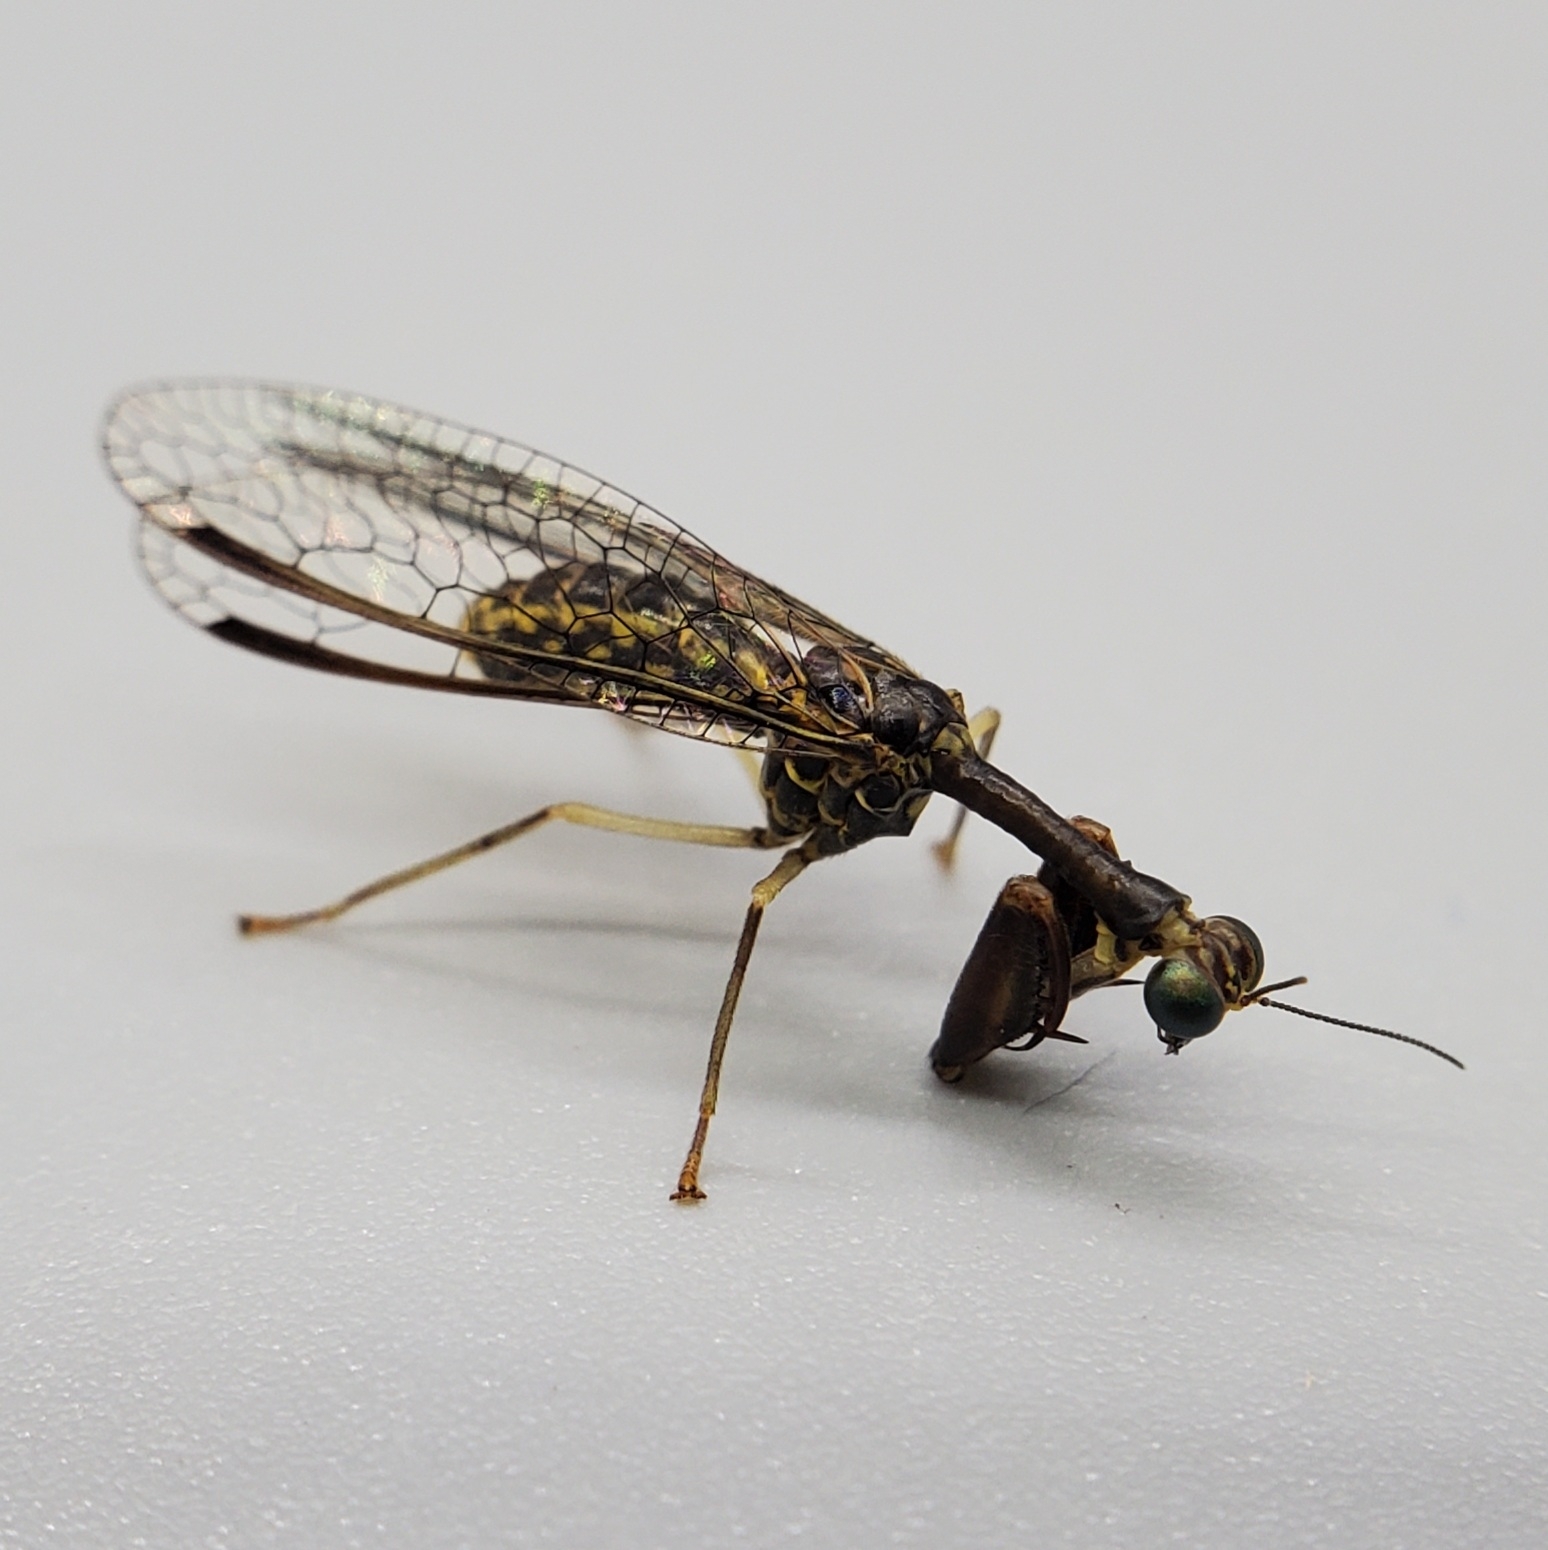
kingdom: Animalia
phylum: Arthropoda
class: Insecta
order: Neuroptera
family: Mantispidae
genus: Dicromantispa
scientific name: Dicromantispa sayi
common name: Say's mantidfly
